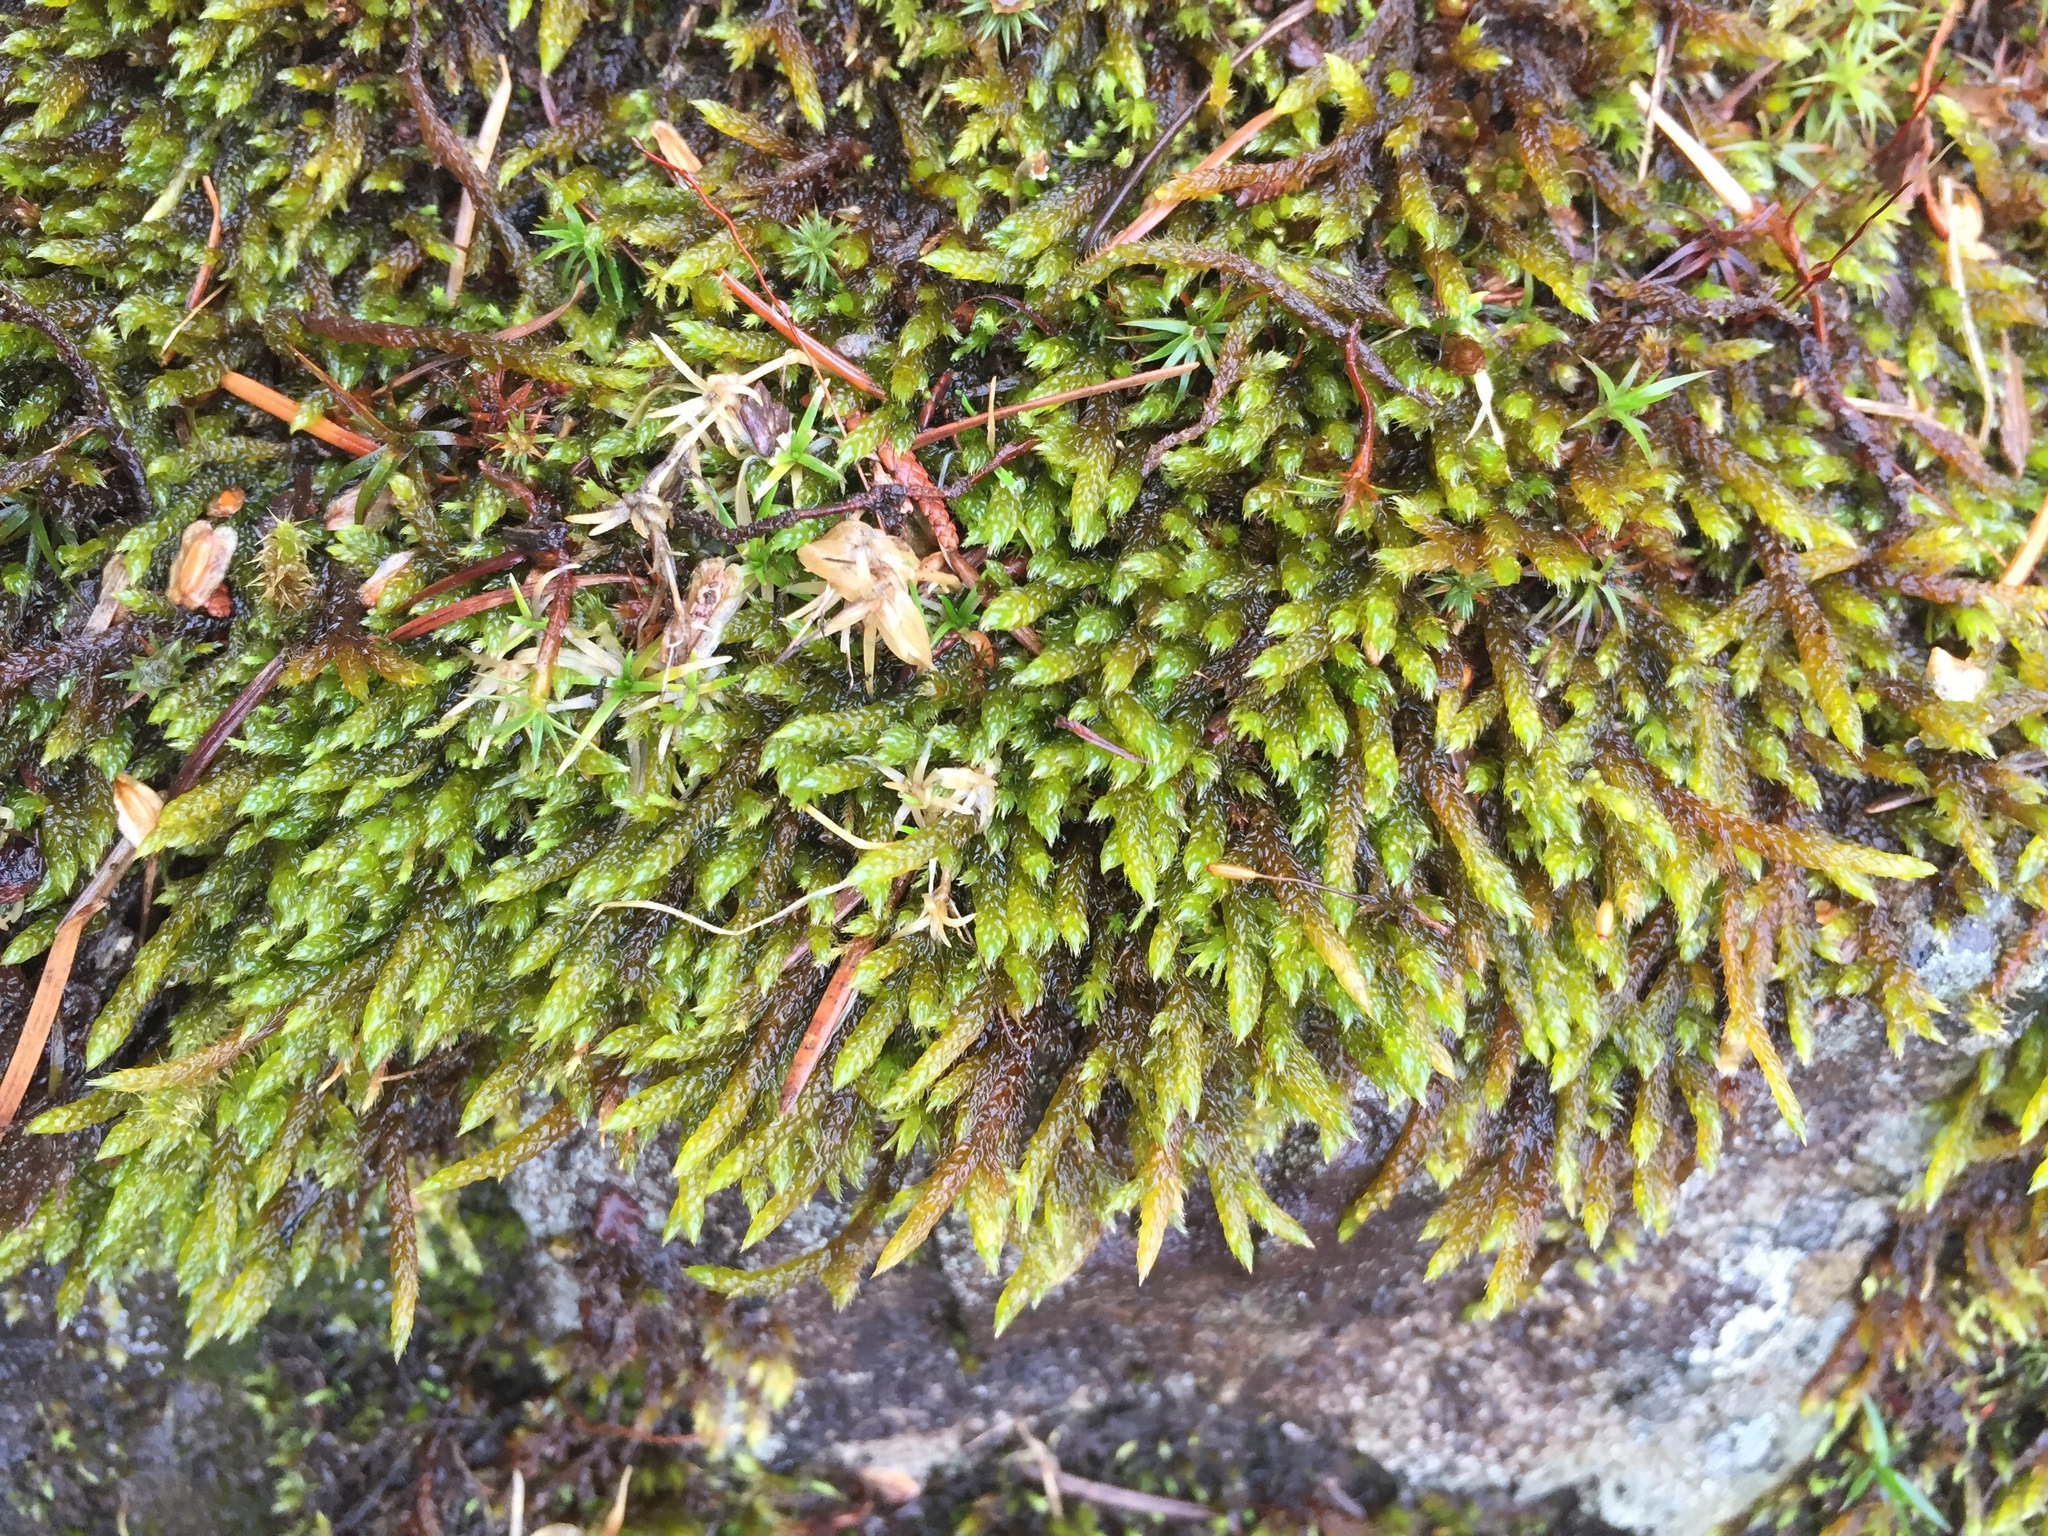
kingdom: Plantae
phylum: Bryophyta
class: Bryopsida
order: Hypnales
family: Brachytheciaceae
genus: Scleropodium
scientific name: Scleropodium obtusifolium
